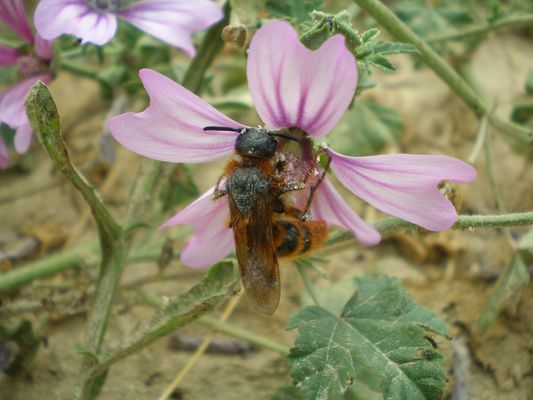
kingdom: Animalia
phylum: Arthropoda
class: Insecta
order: Hymenoptera
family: Scoliidae
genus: Dasyscolia
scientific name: Dasyscolia ciliata
